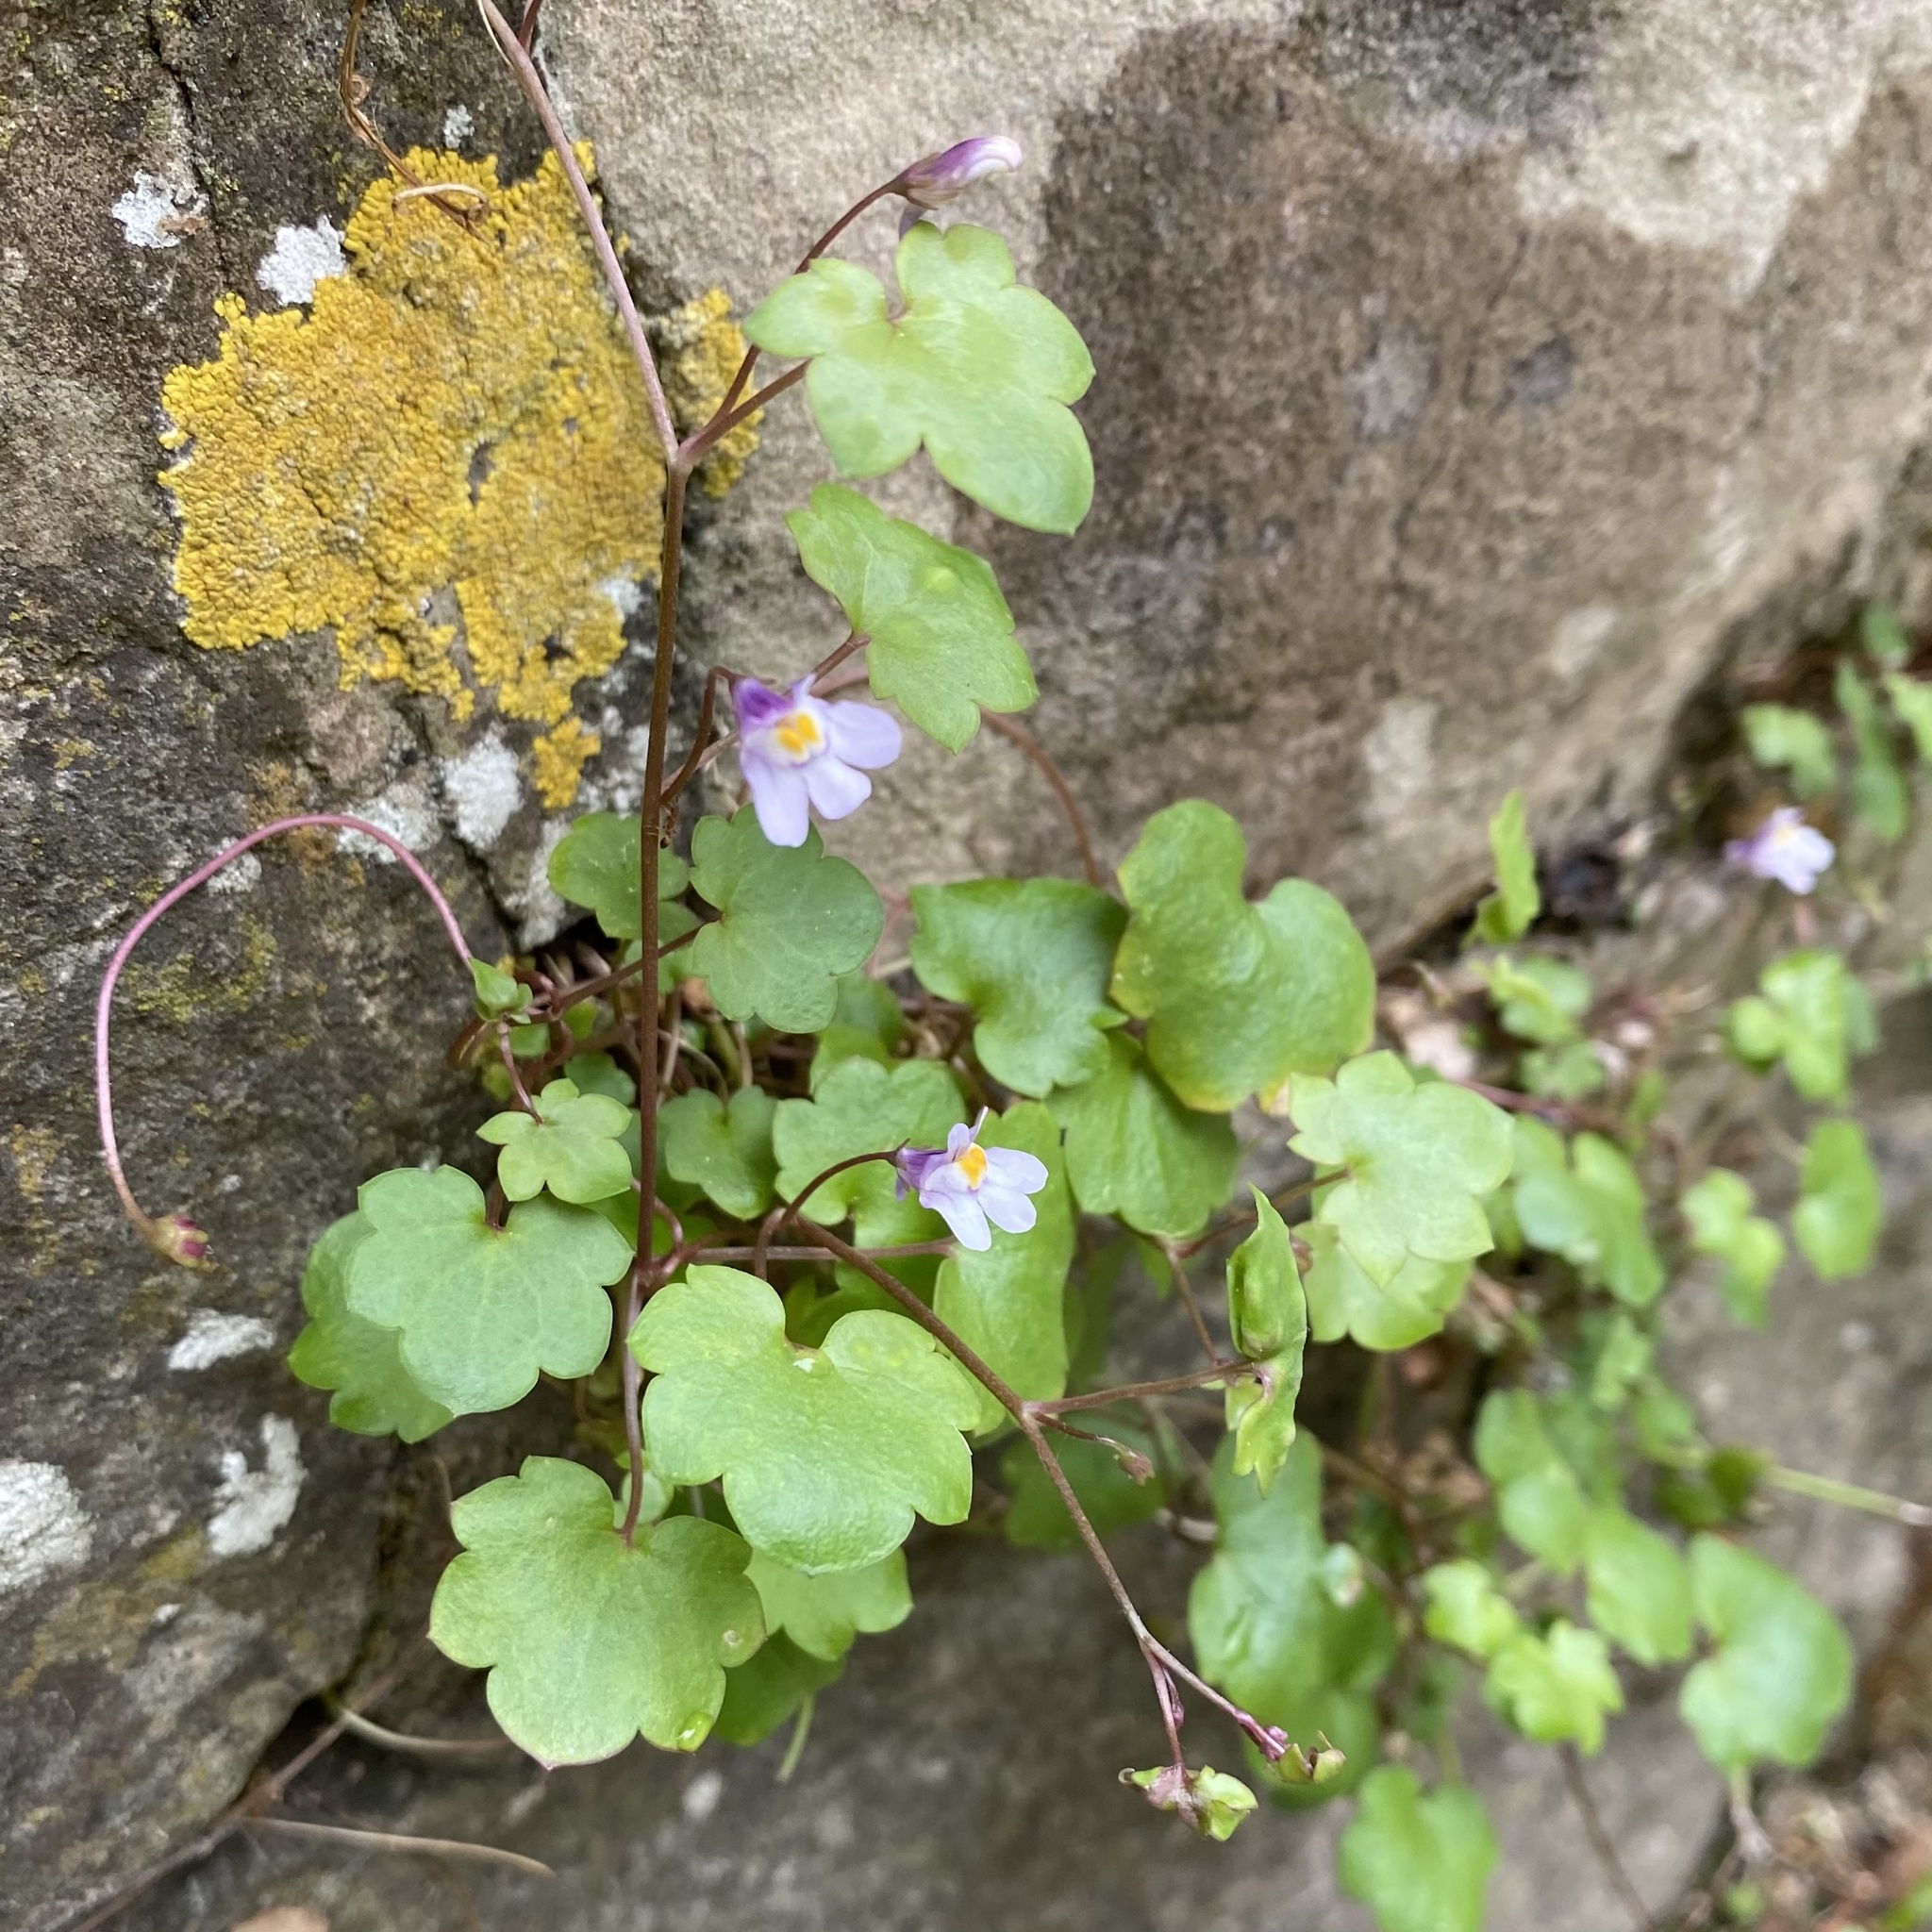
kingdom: Plantae
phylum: Tracheophyta
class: Magnoliopsida
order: Lamiales
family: Plantaginaceae
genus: Cymbalaria
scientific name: Cymbalaria muralis
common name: Ivy-leaved toadflax
